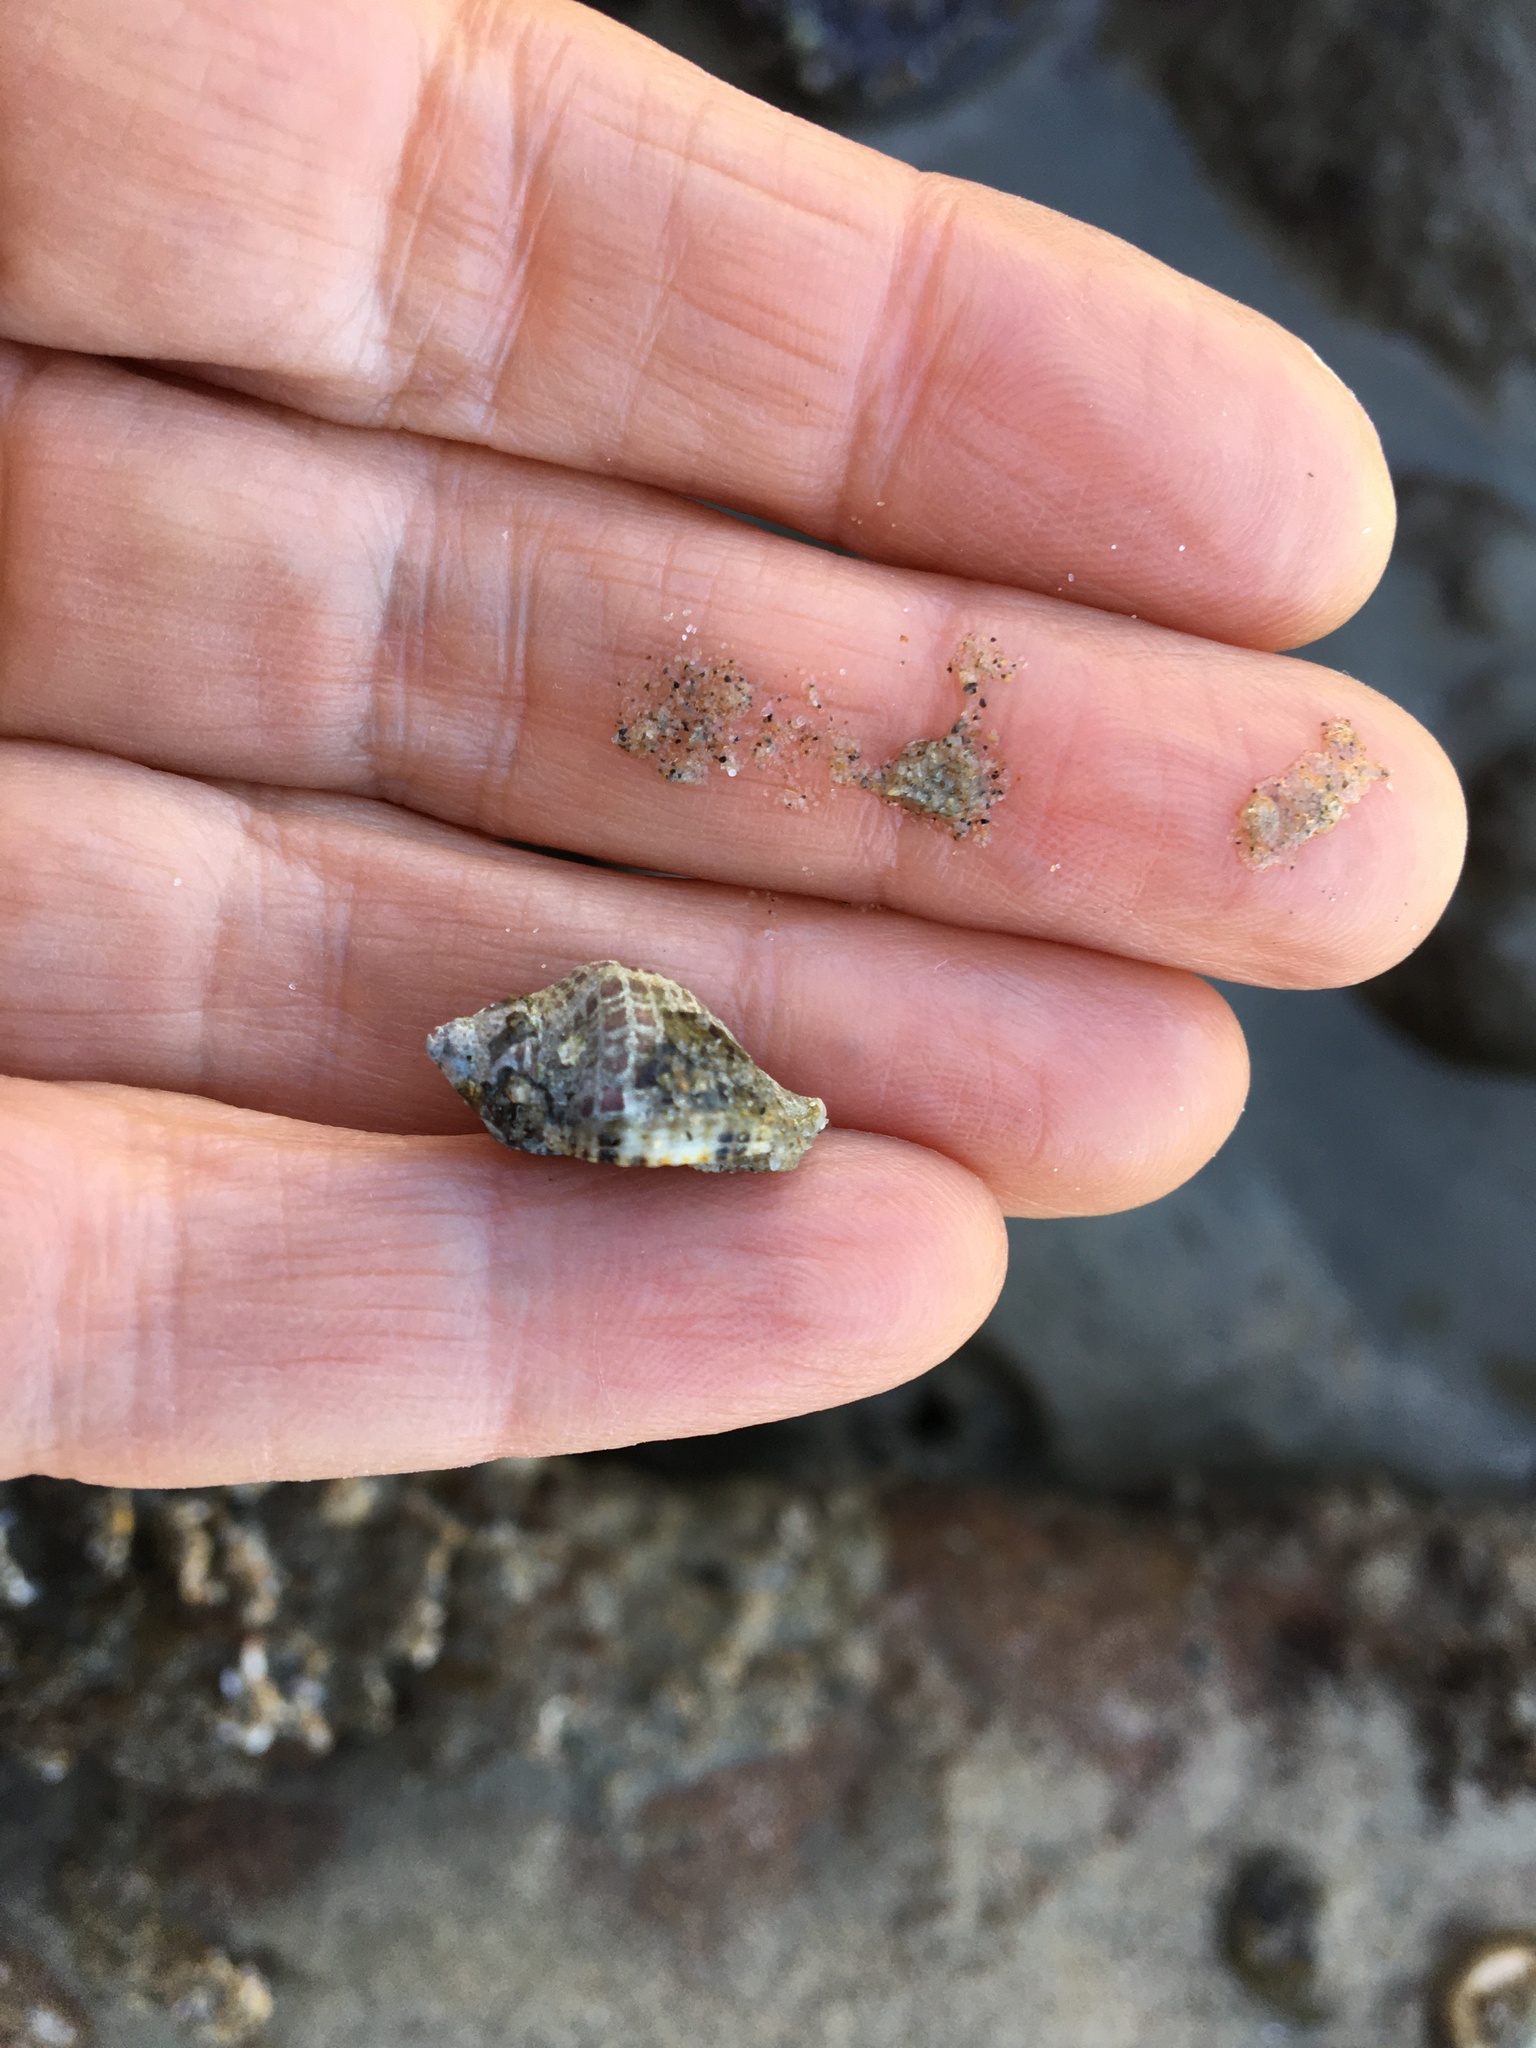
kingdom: Animalia
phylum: Mollusca
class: Gastropoda
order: Neogastropoda
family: Muricidae
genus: Acanthinucella
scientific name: Acanthinucella spirata
